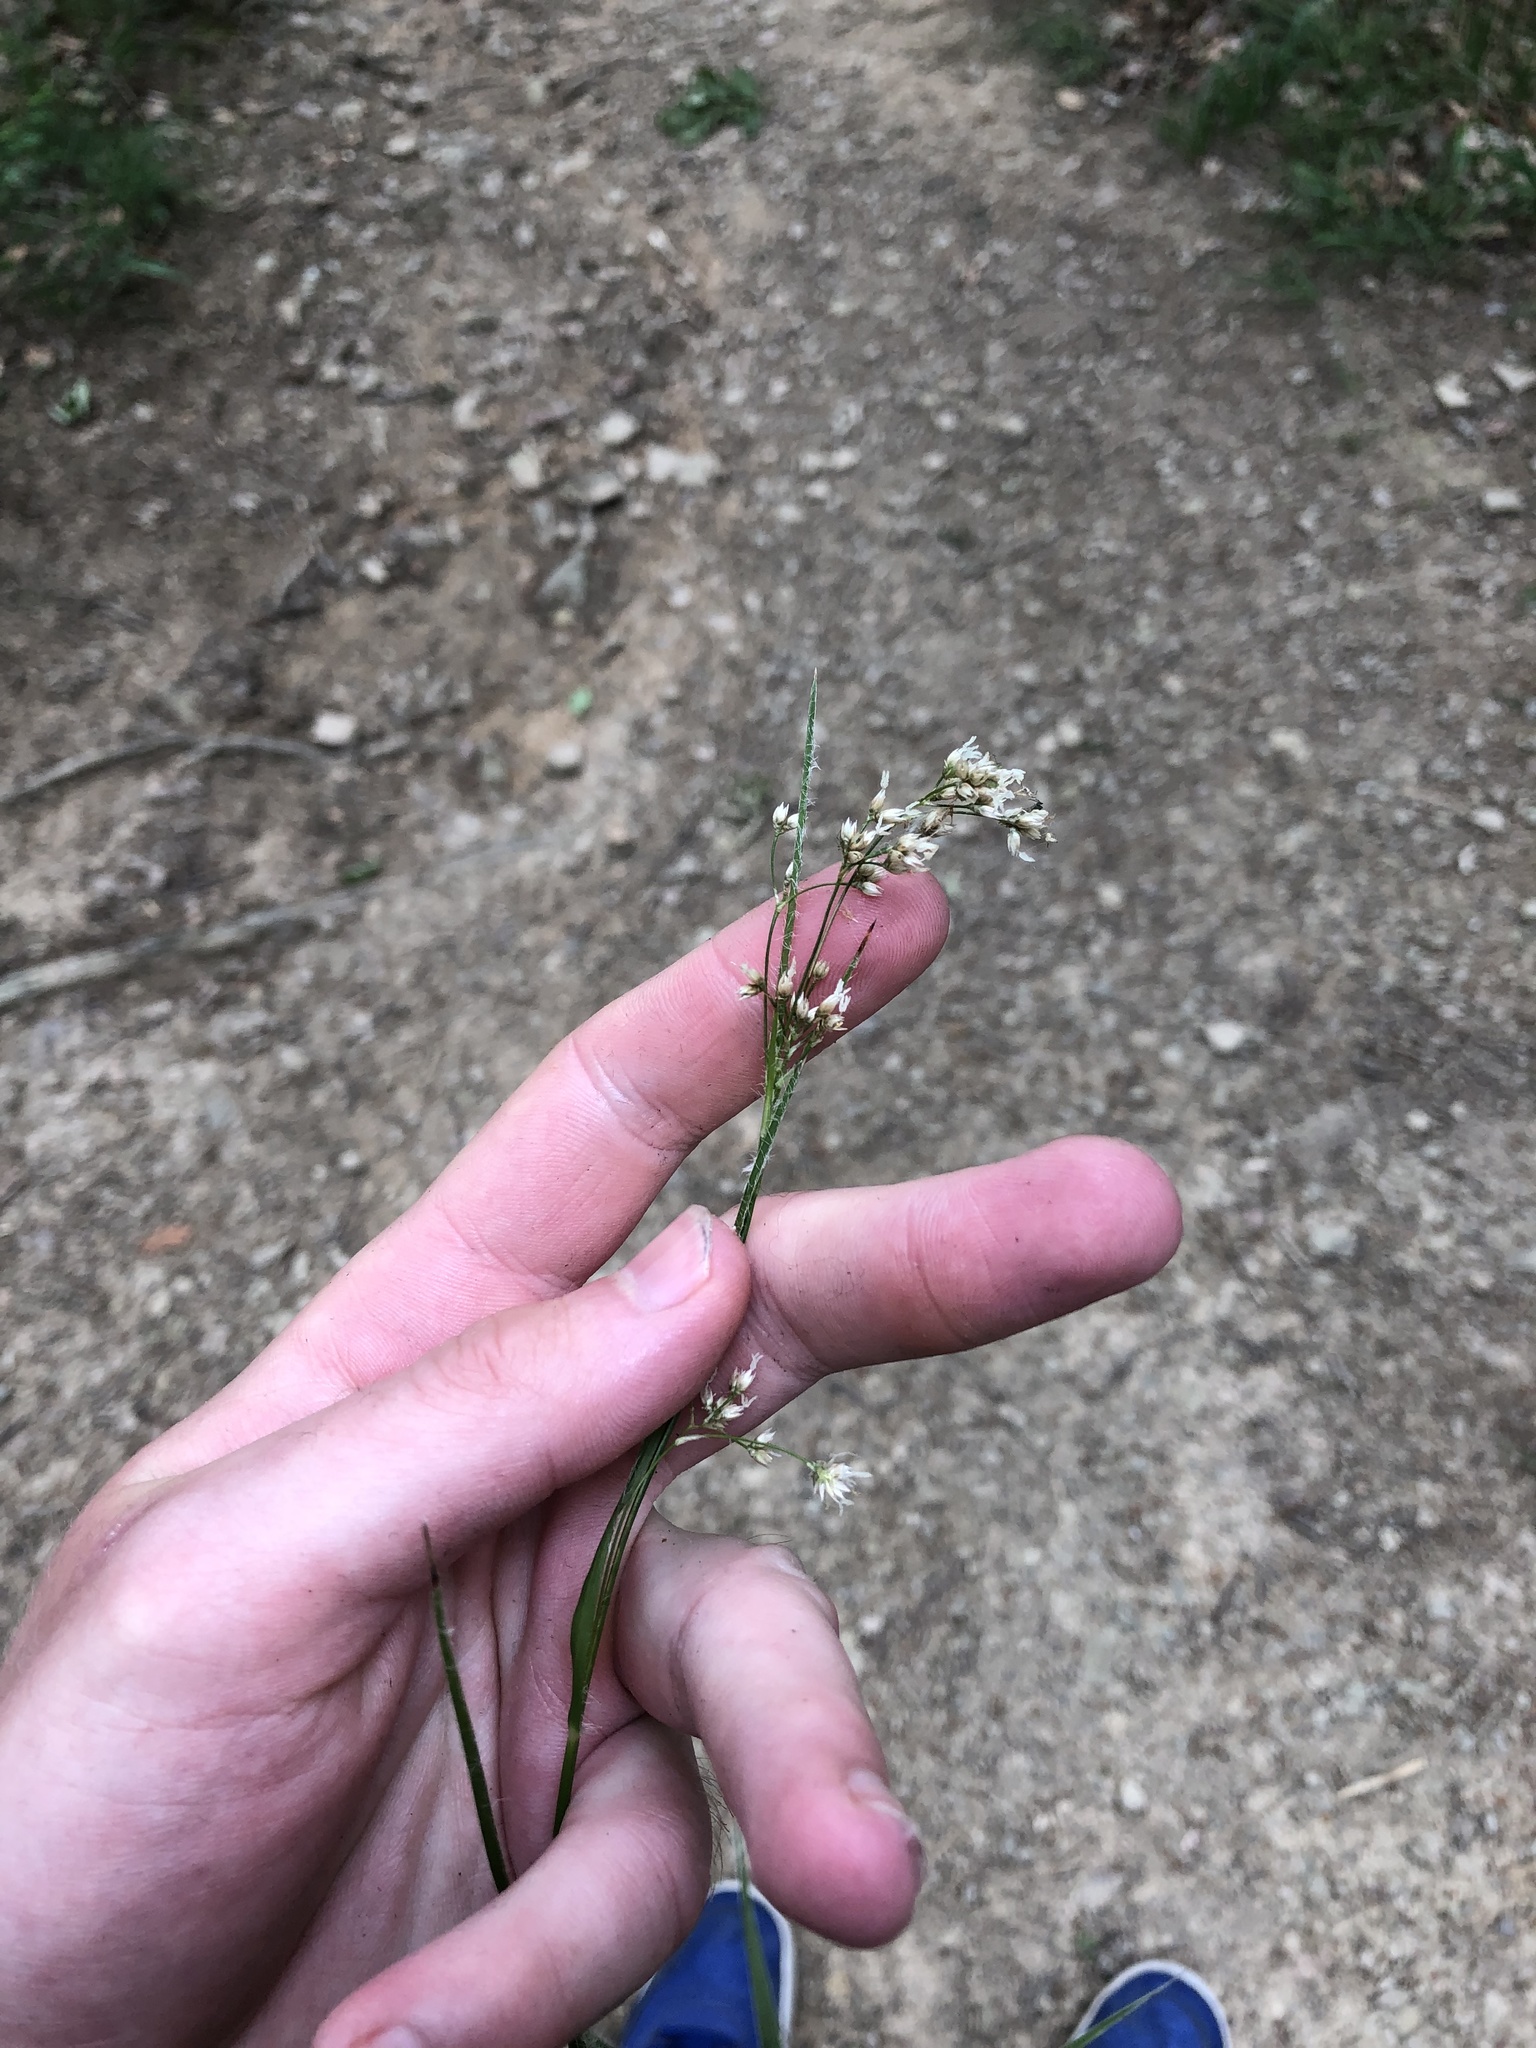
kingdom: Plantae
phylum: Tracheophyta
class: Liliopsida
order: Poales
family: Juncaceae
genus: Luzula
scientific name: Luzula luzuloides
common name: White wood-rush
